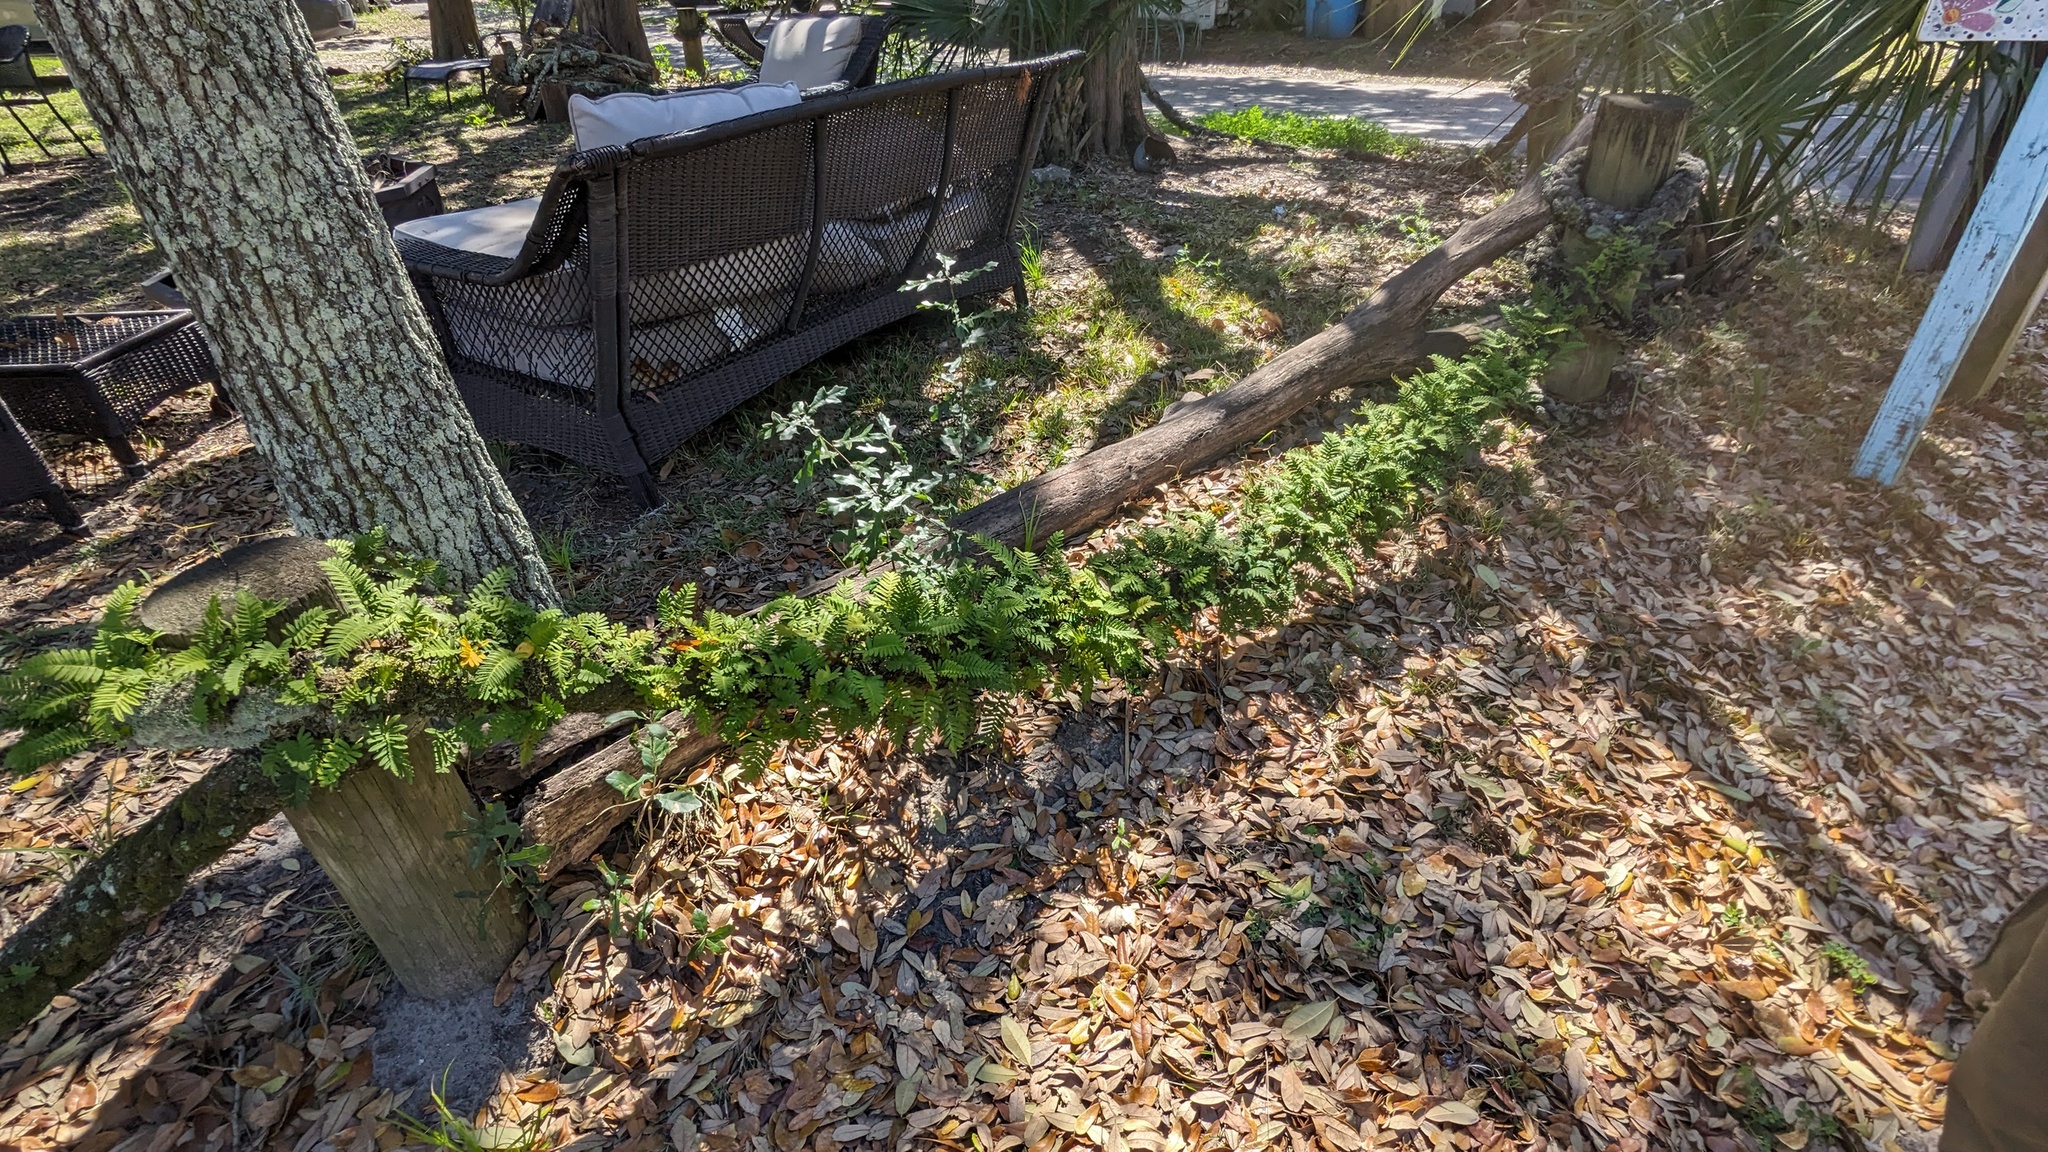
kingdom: Plantae
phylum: Tracheophyta
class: Polypodiopsida
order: Polypodiales
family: Polypodiaceae
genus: Pleopeltis
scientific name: Pleopeltis michauxiana
